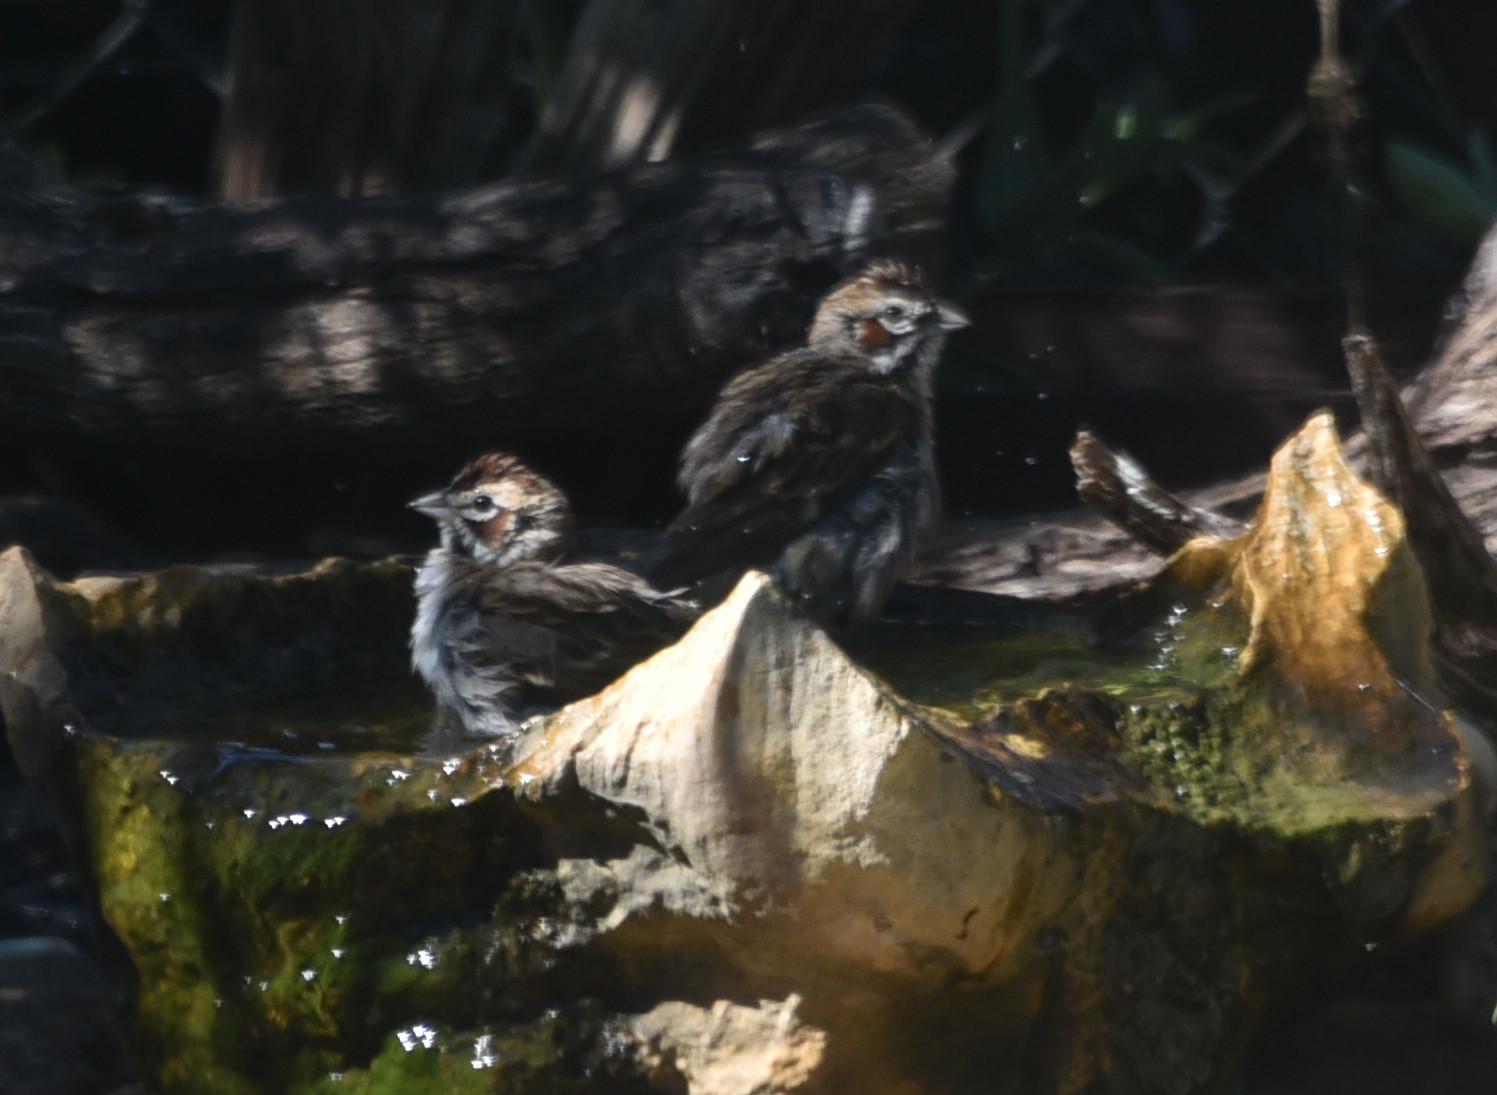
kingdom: Animalia
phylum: Chordata
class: Aves
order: Passeriformes
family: Passerellidae
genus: Chondestes
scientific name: Chondestes grammacus
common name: Lark sparrow
